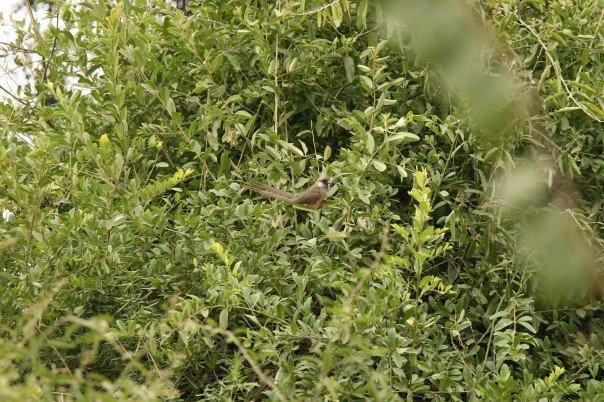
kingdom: Animalia
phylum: Chordata
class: Aves
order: Coliiformes
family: Coliidae
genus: Colius
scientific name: Colius striatus
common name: Speckled mousebird
